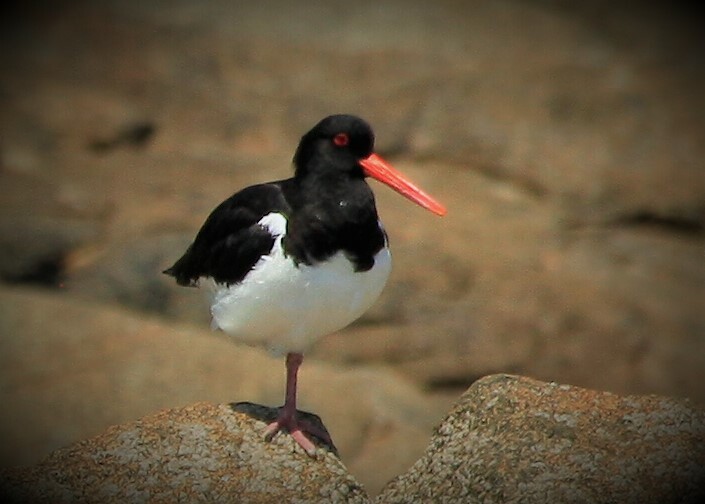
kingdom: Animalia
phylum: Chordata
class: Aves
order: Charadriiformes
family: Haematopodidae
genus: Haematopus
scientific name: Haematopus ostralegus
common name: Eurasian oystercatcher
